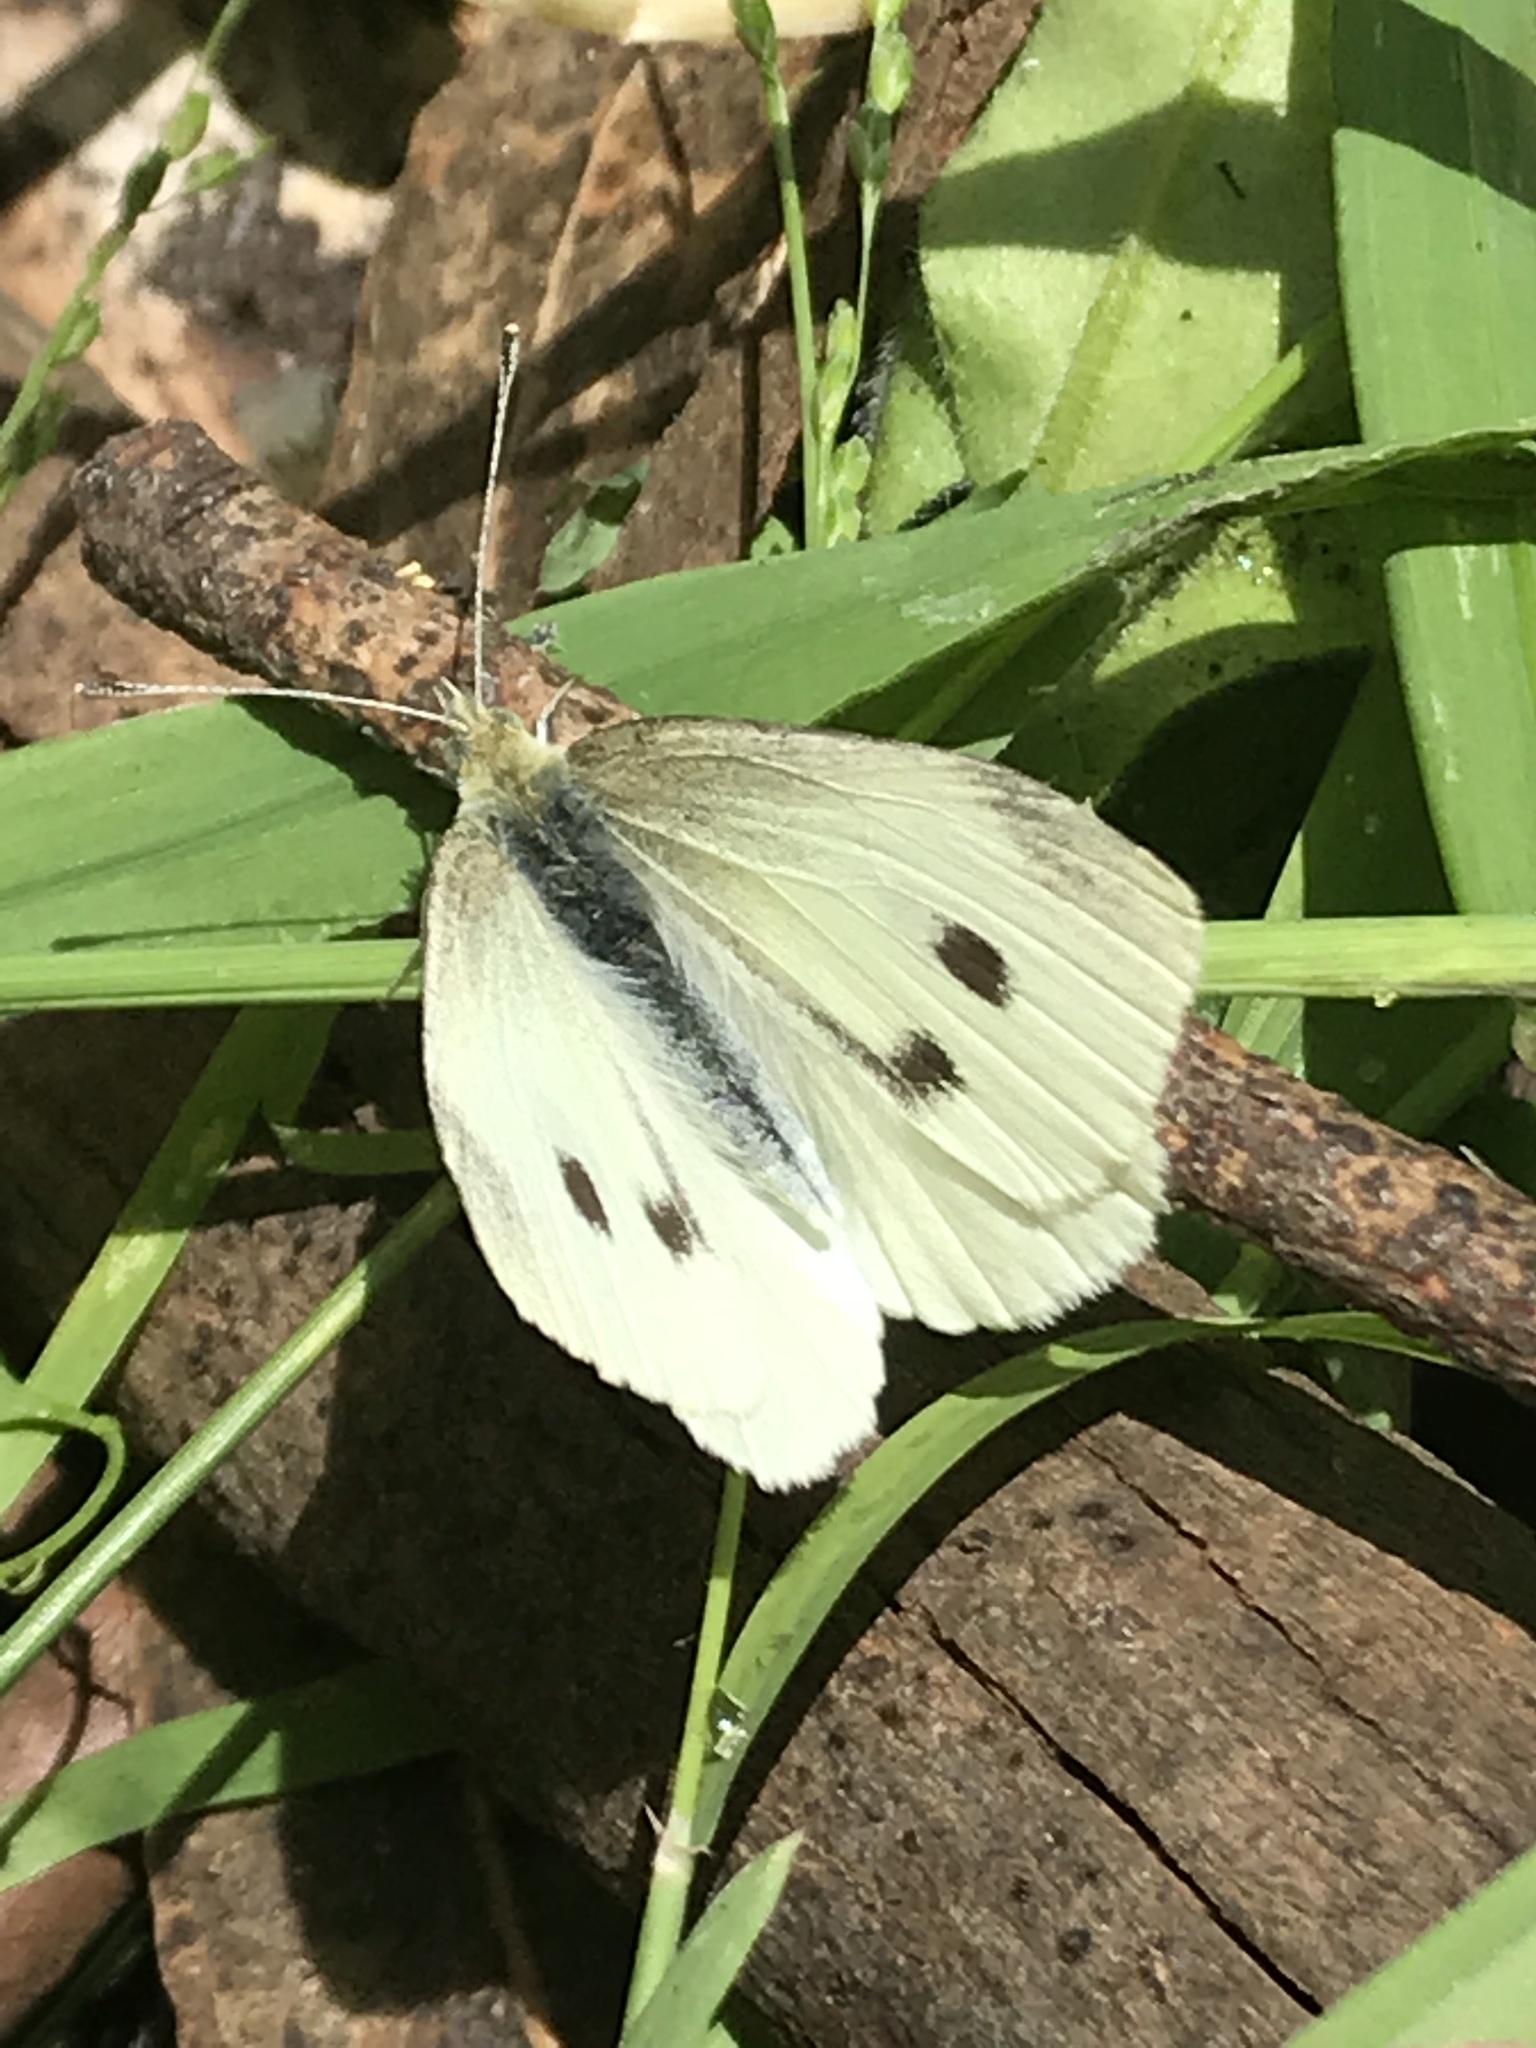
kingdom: Animalia
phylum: Arthropoda
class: Insecta
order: Lepidoptera
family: Pieridae
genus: Pieris
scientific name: Pieris rapae
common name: Small white
